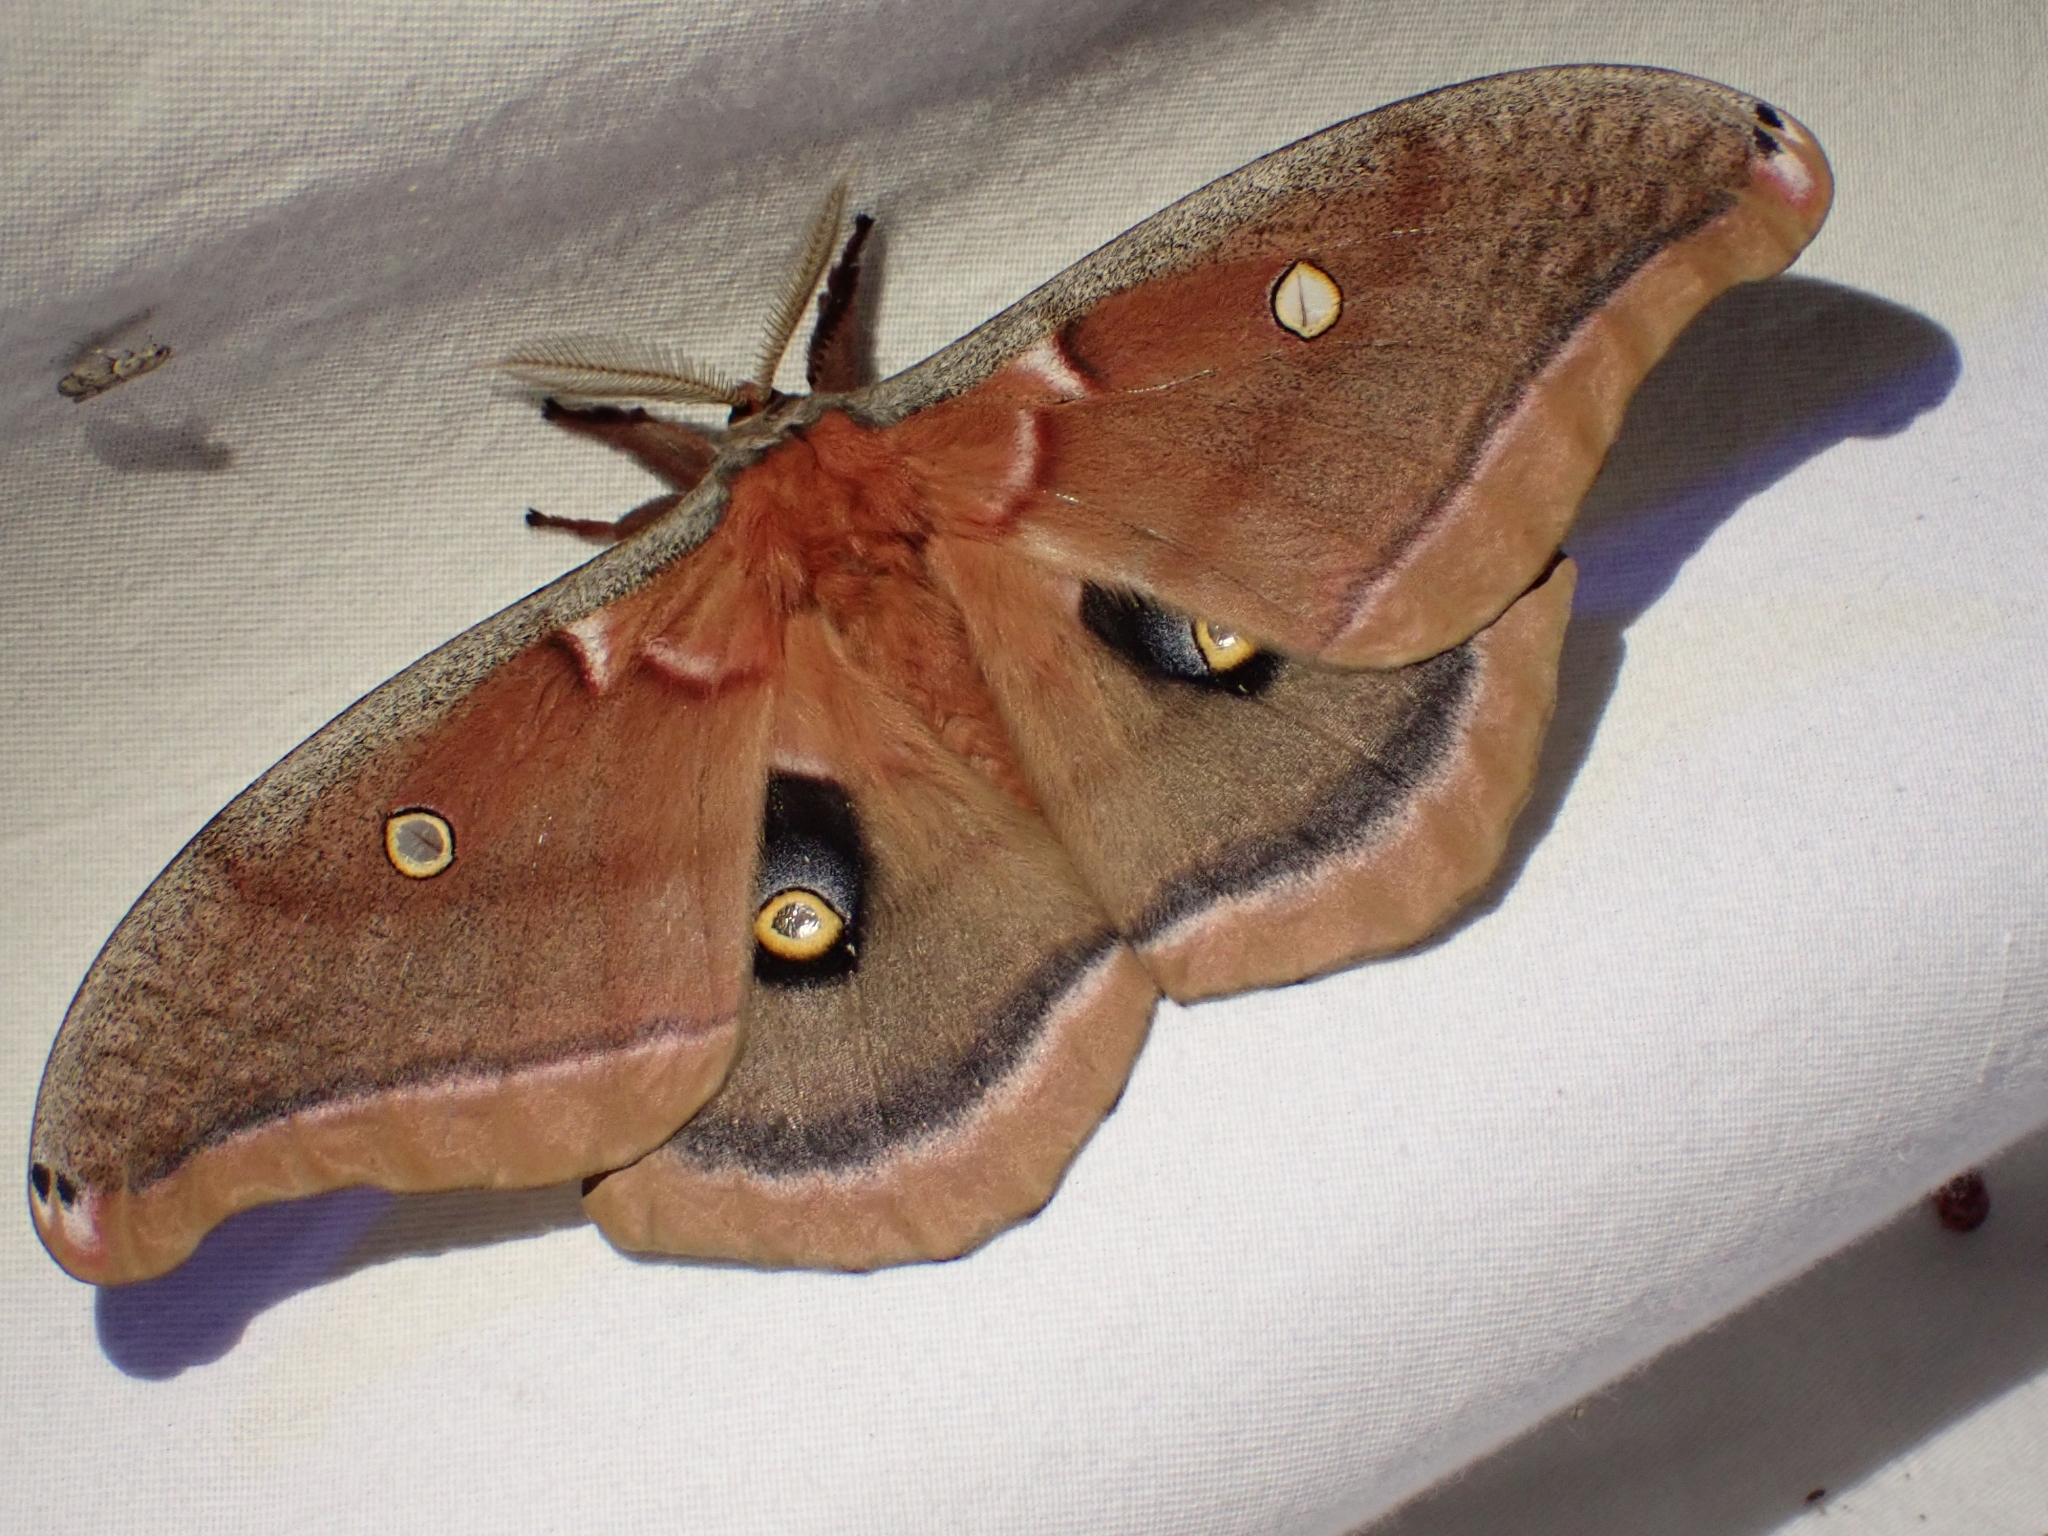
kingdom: Animalia
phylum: Arthropoda
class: Insecta
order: Lepidoptera
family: Saturniidae
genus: Antheraea
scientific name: Antheraea polyphemus
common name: Polyphemus moth
